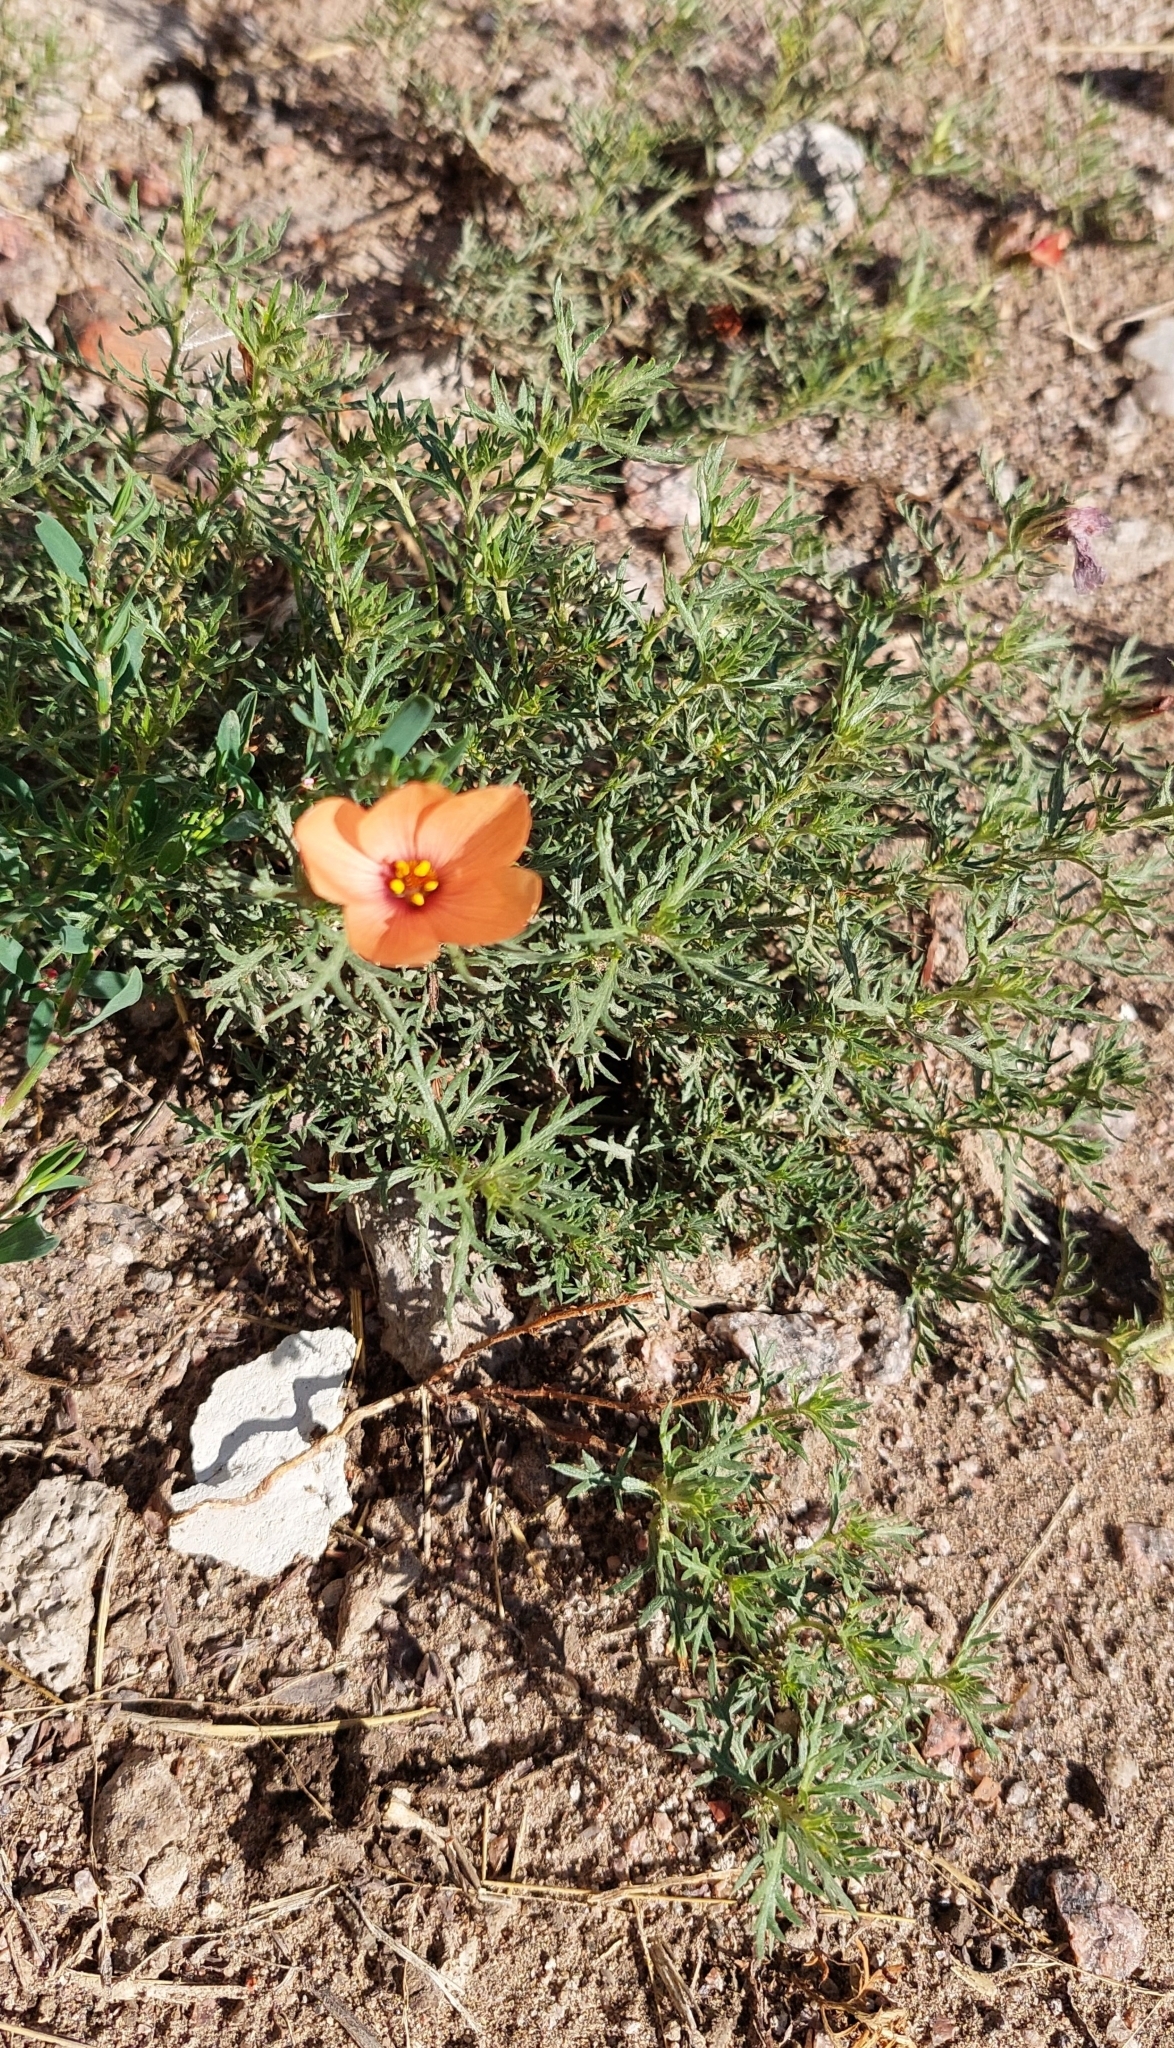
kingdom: Plantae
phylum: Tracheophyta
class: Magnoliopsida
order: Malpighiales
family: Turneraceae
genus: Turnera
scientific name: Turnera sidoides
